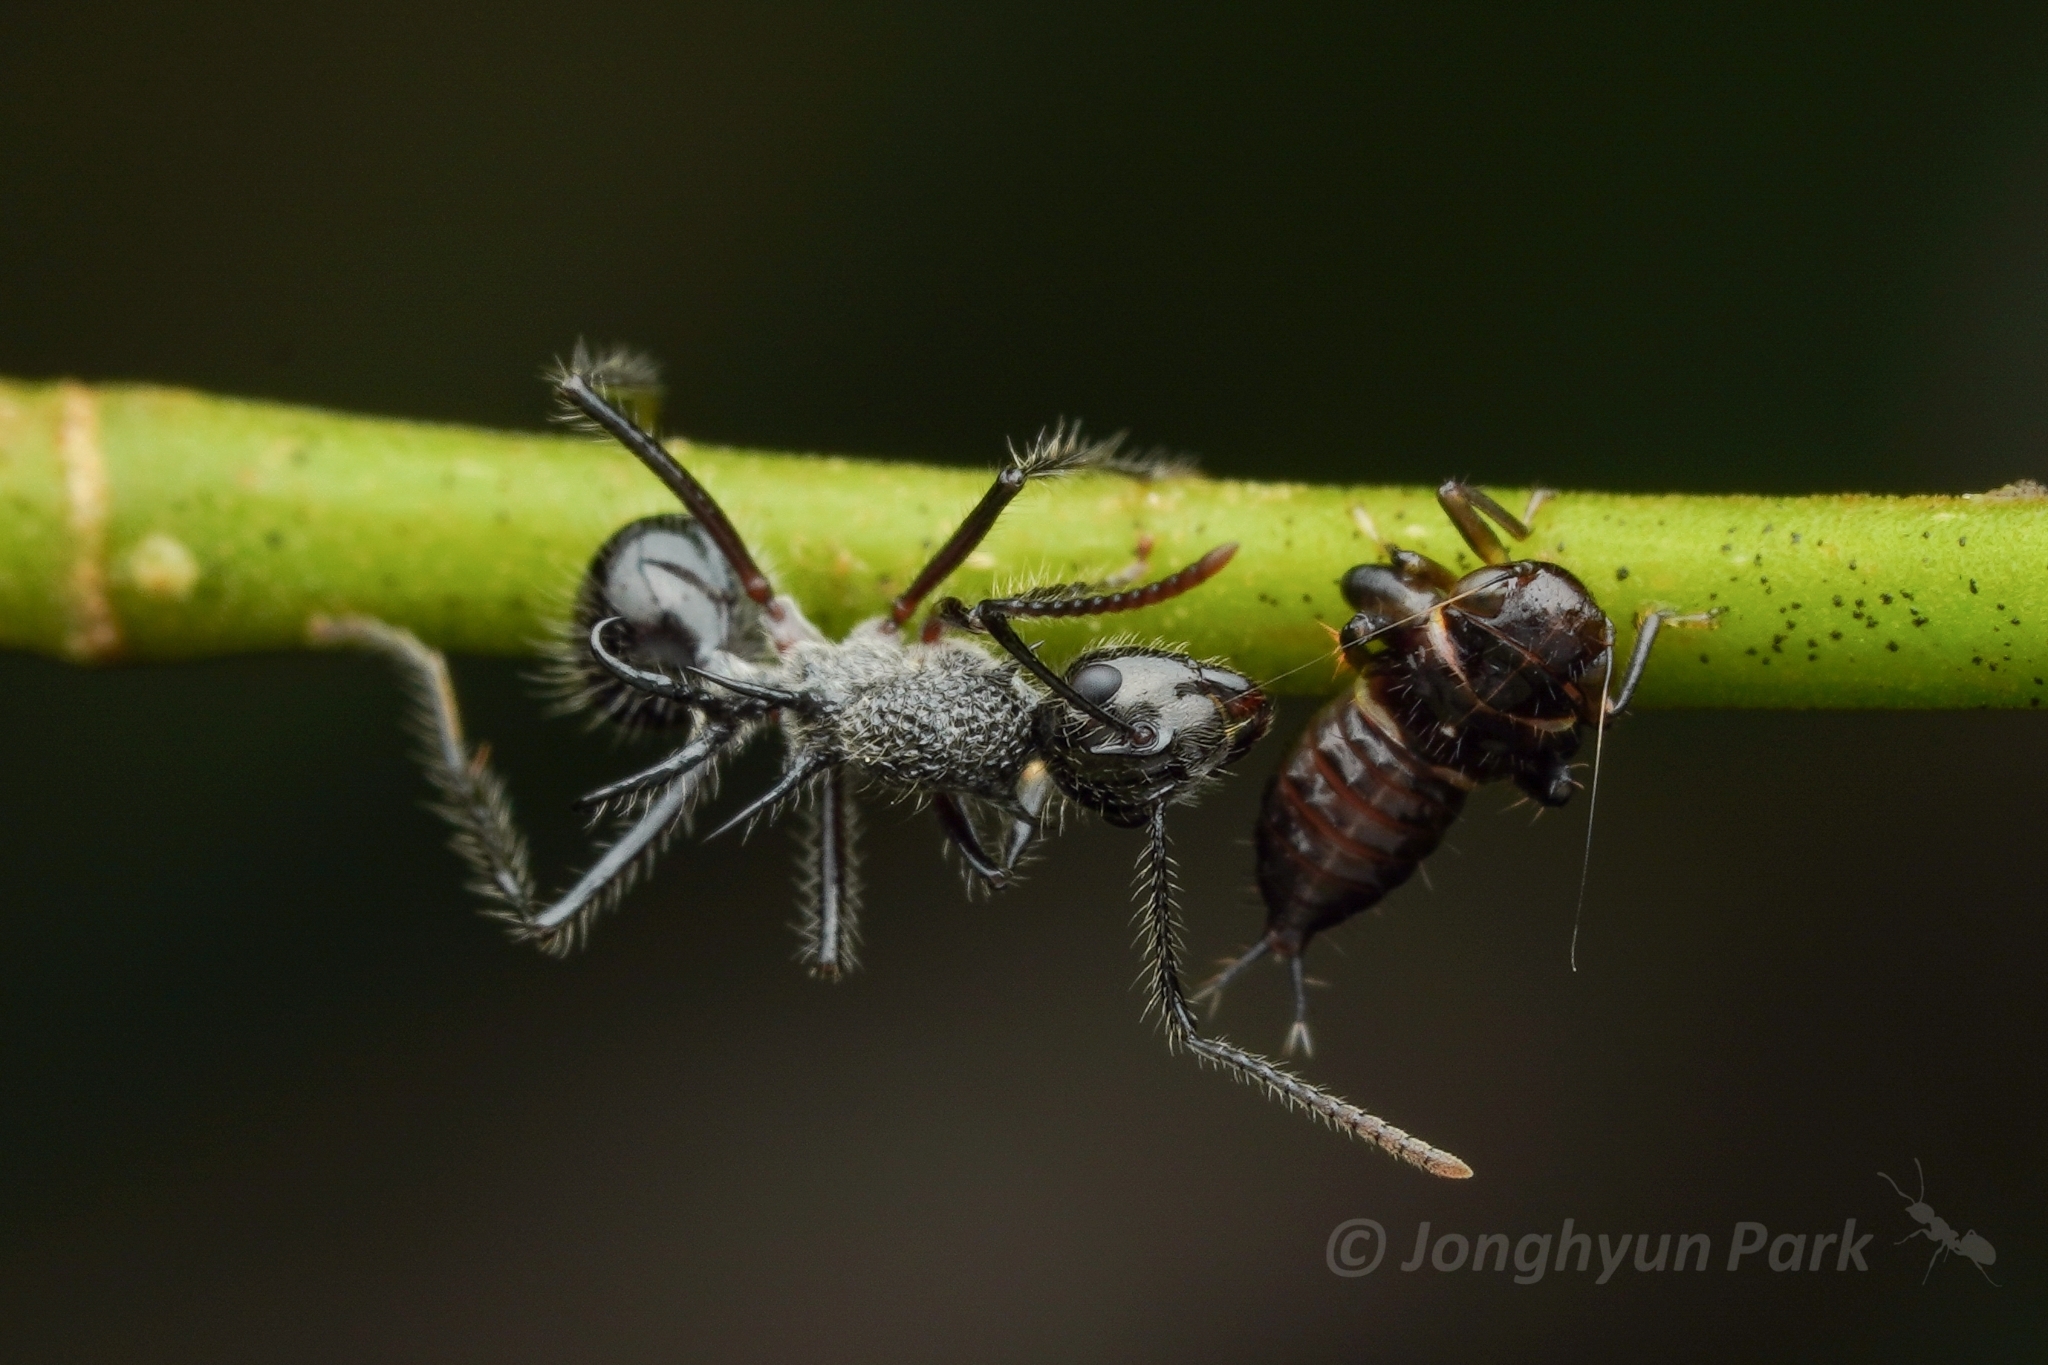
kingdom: Animalia
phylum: Arthropoda
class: Insecta
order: Hymenoptera
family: Formicidae
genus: Polyrhachis
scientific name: Polyrhachis furcata
